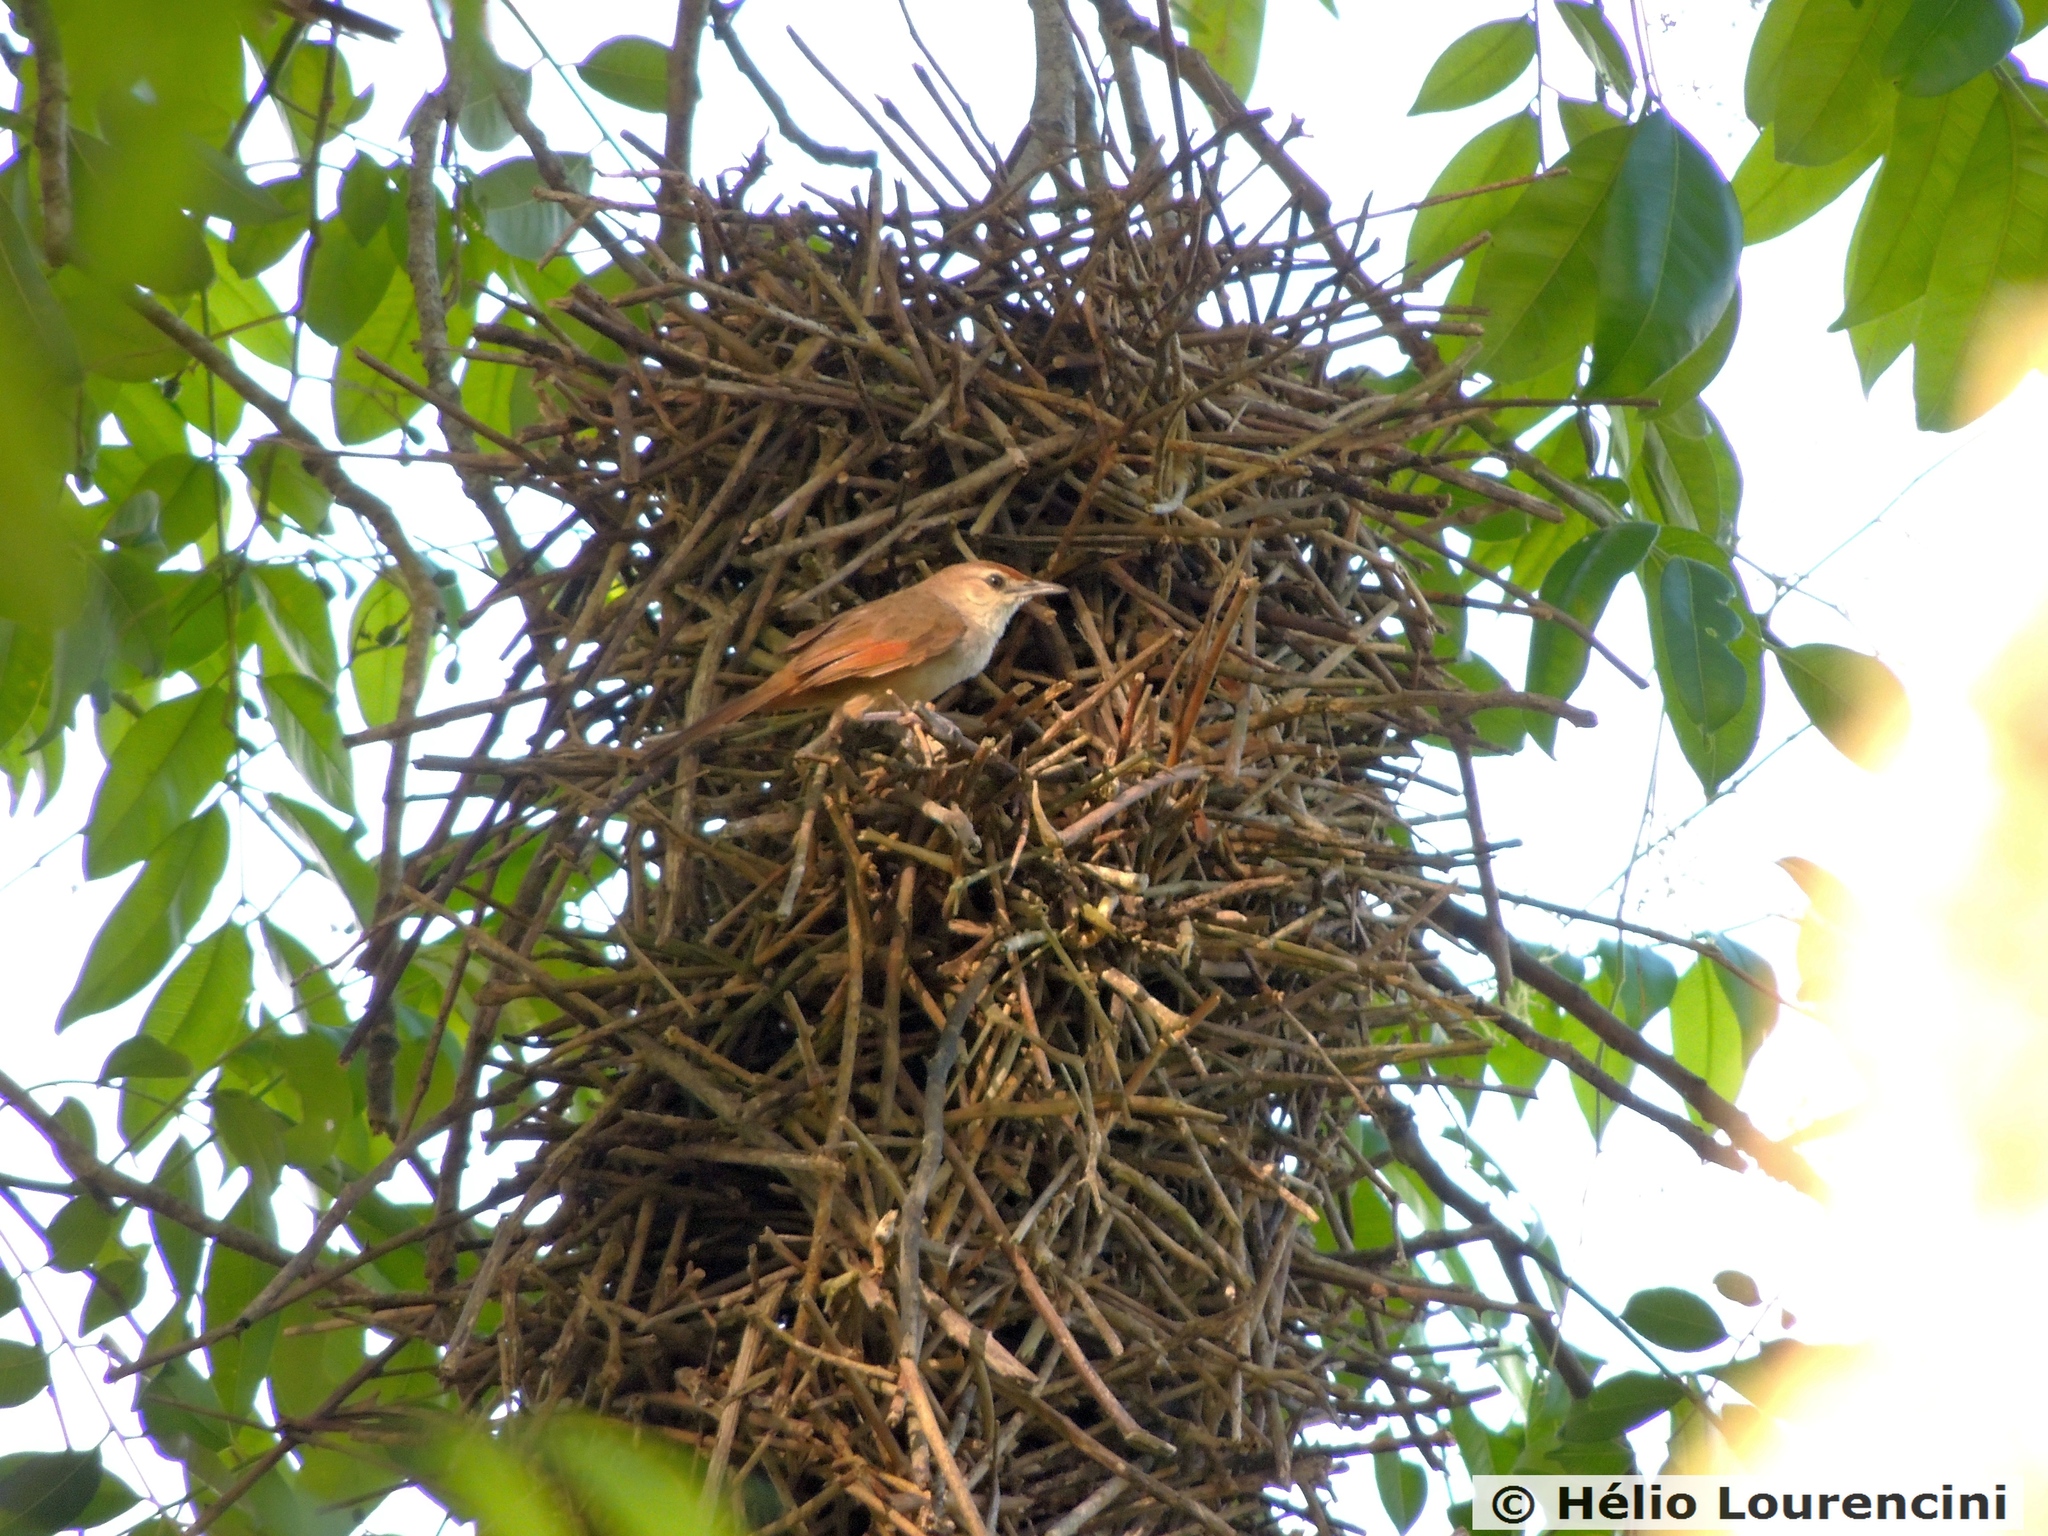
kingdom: Animalia
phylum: Chordata
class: Aves
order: Passeriformes
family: Furnariidae
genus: Phacellodomus
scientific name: Phacellodomus rufifrons
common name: Rufous-fronted thornbird
